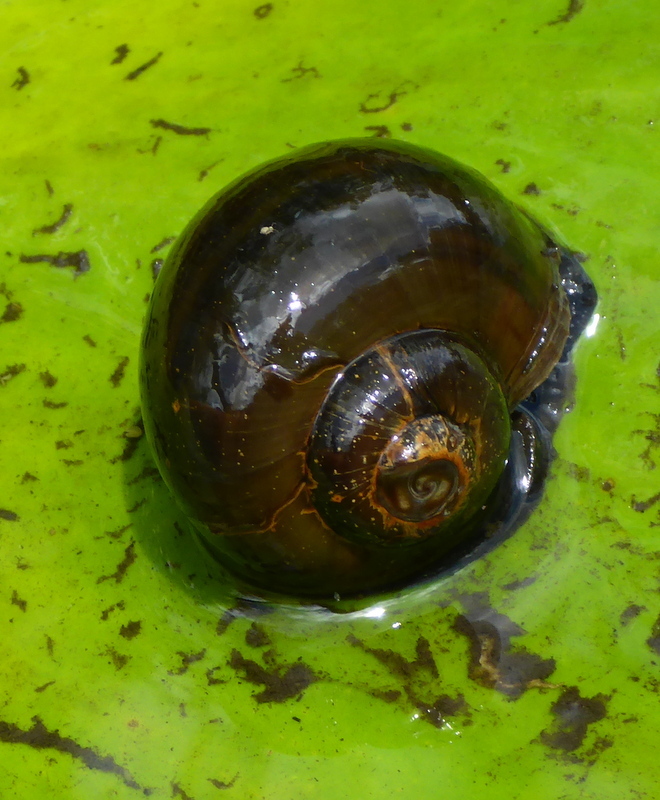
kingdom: Animalia
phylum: Mollusca
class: Gastropoda
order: Architaenioglossa
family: Ampullariidae
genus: Pomacea
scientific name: Pomacea paludosa
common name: Florida applesnail
